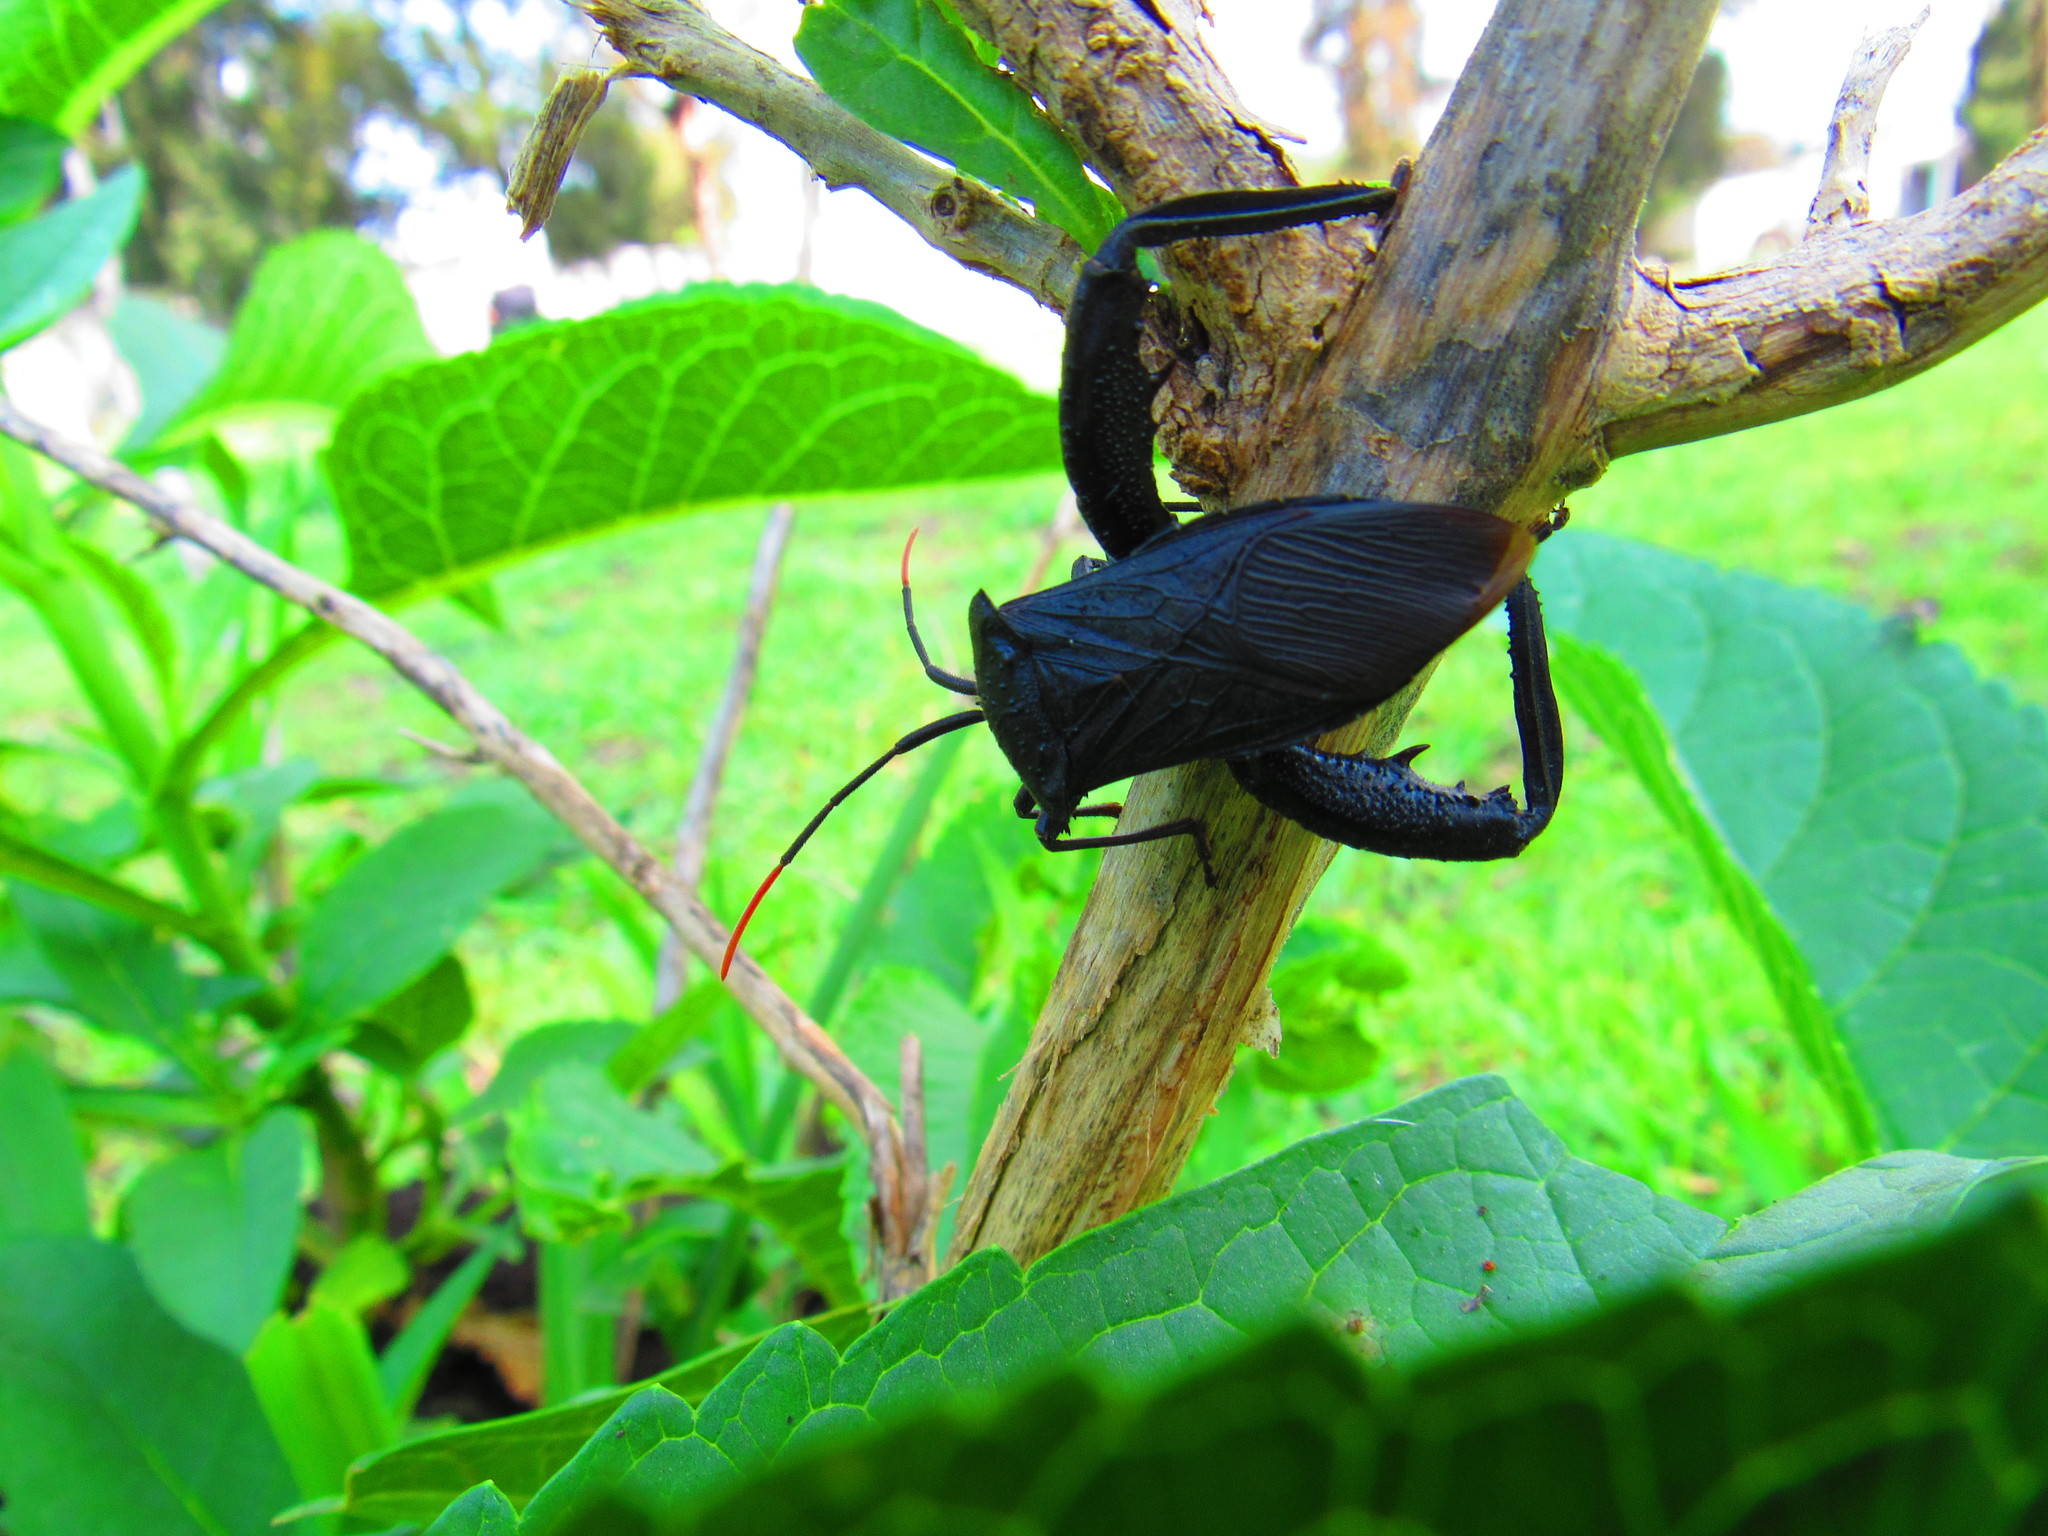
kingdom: Animalia
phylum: Arthropoda
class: Insecta
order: Hemiptera
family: Coreidae
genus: Acanthocephala
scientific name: Acanthocephala femorata
